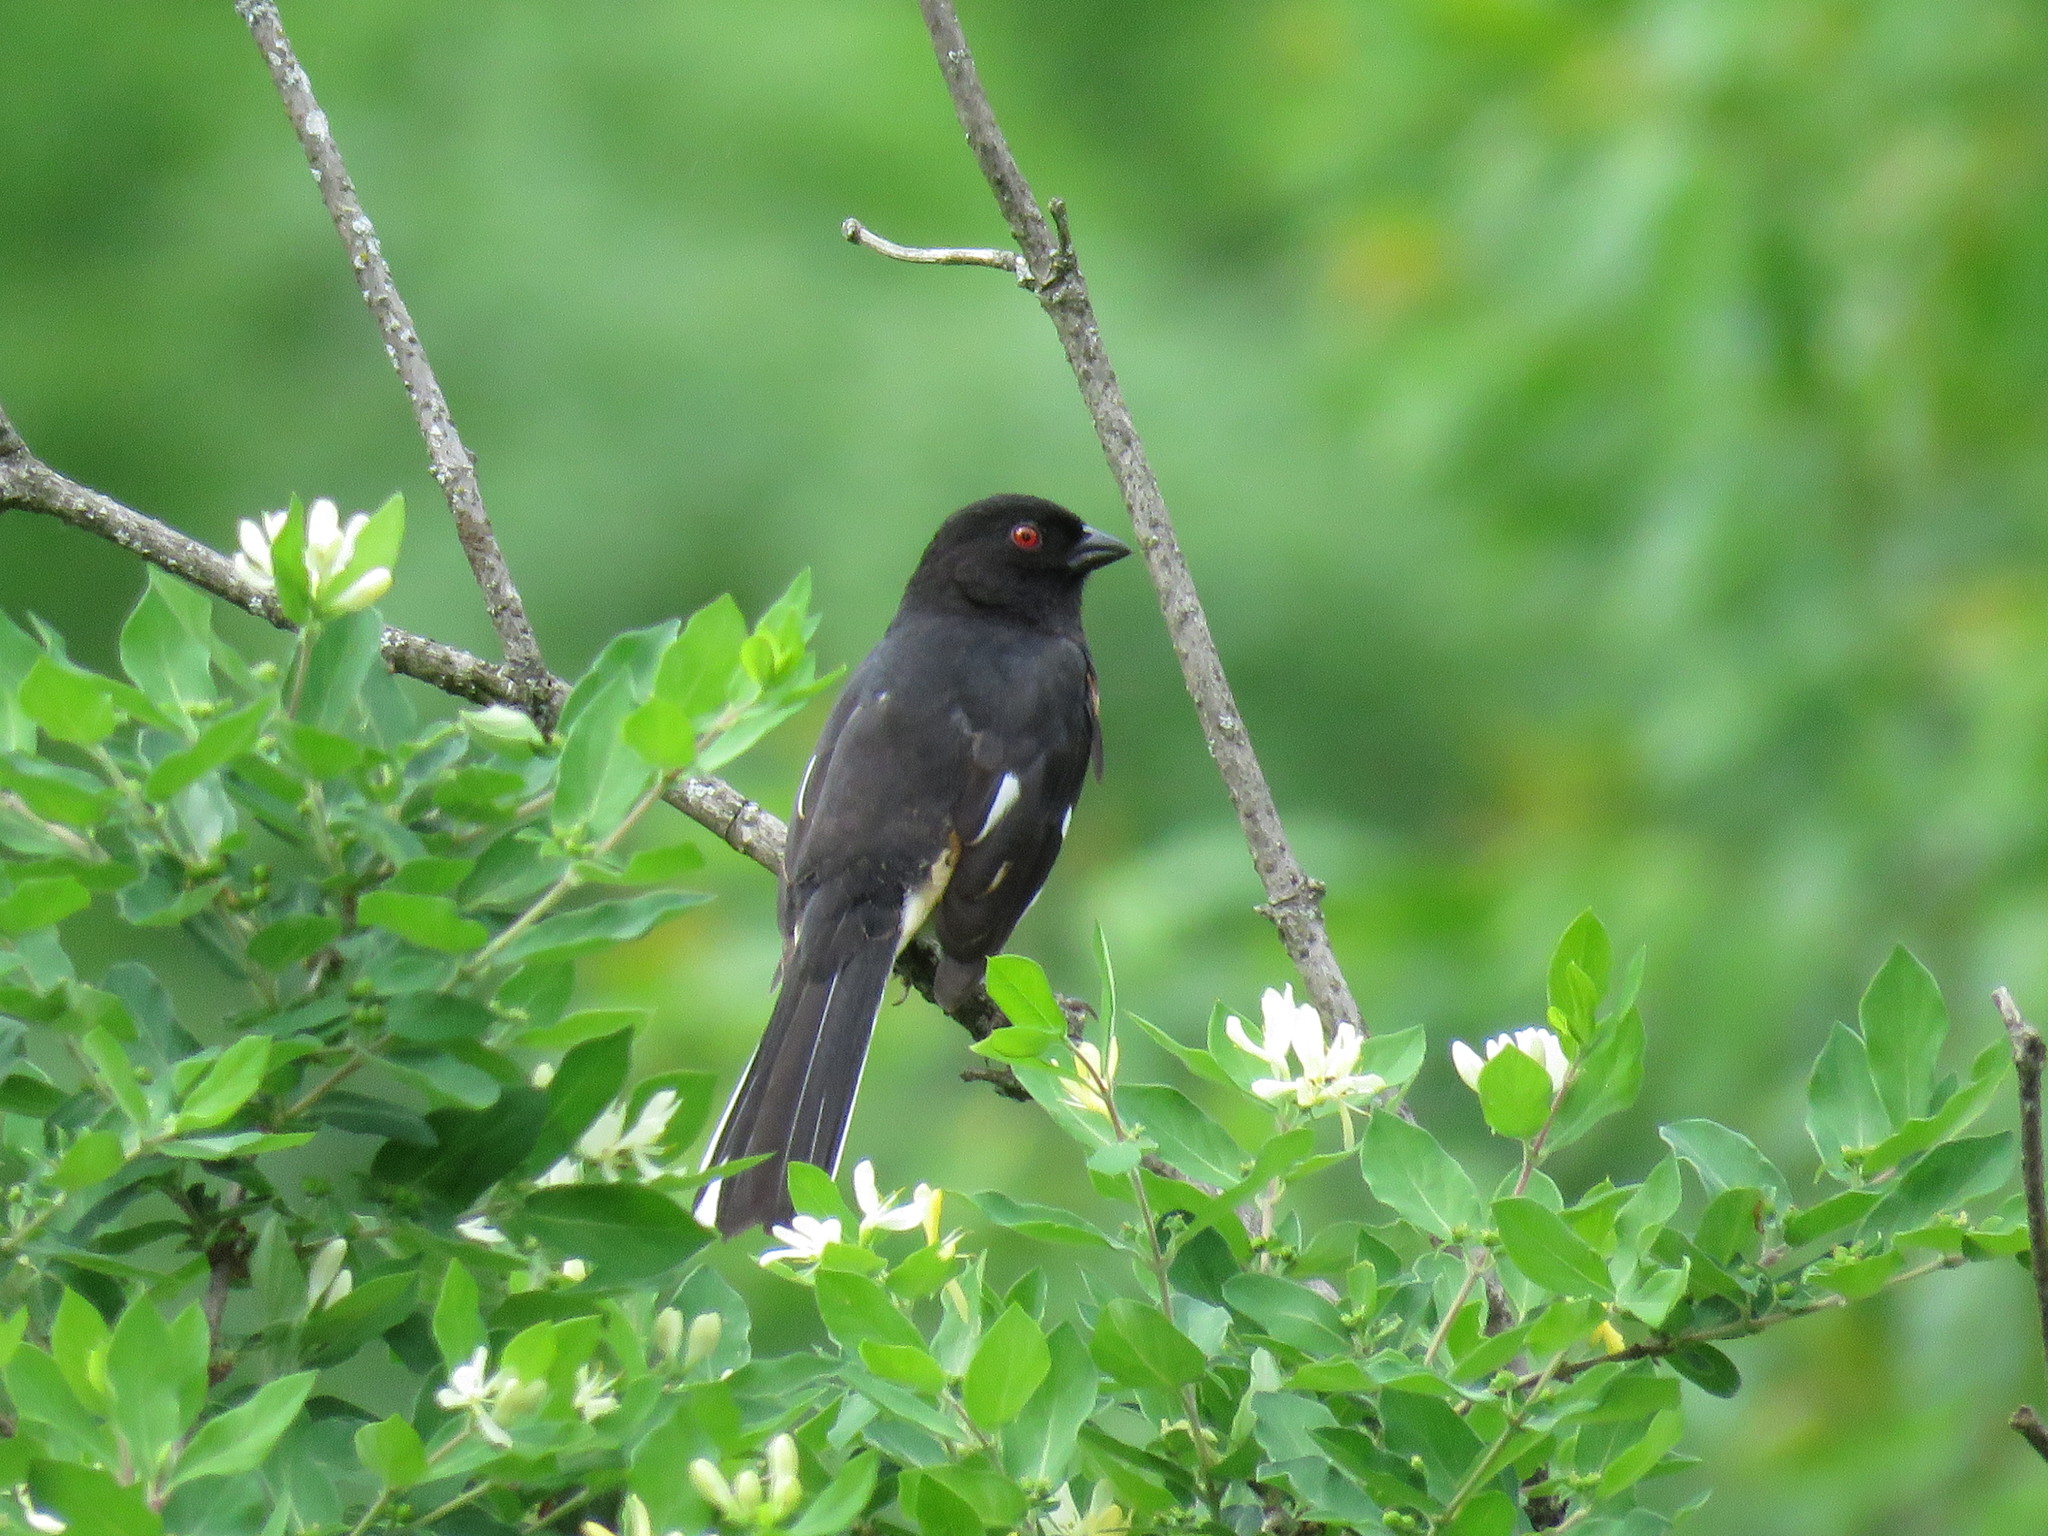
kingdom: Animalia
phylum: Chordata
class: Aves
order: Passeriformes
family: Passerellidae
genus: Pipilo
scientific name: Pipilo erythrophthalmus
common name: Eastern towhee
